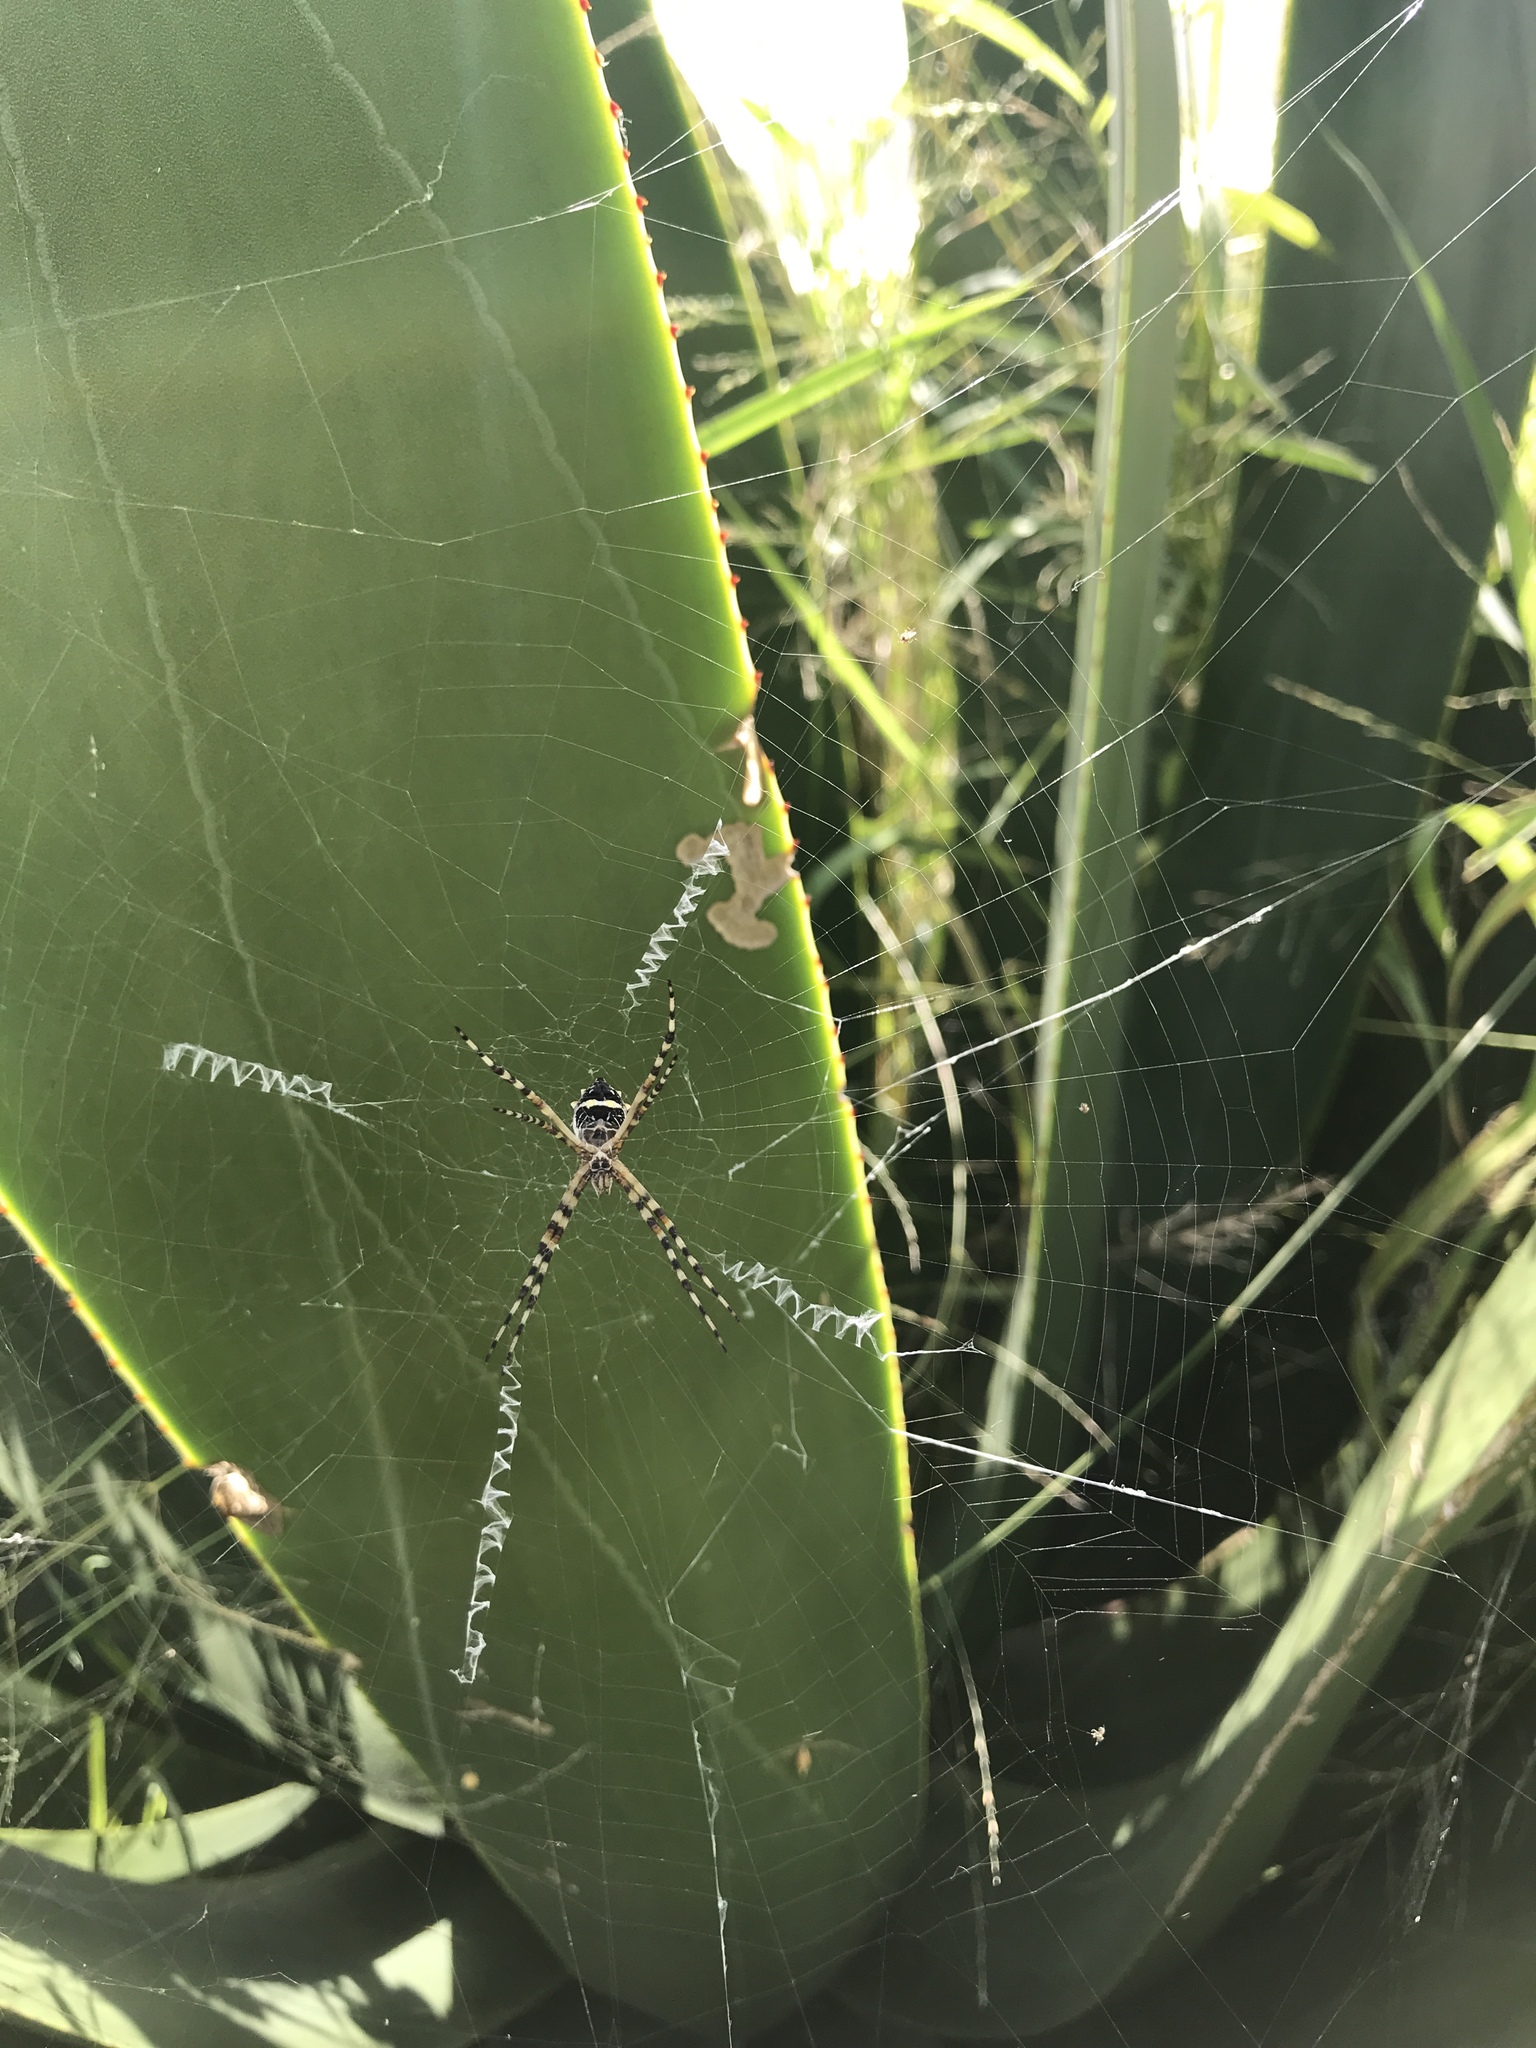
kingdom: Animalia
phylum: Arthropoda
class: Arachnida
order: Araneae
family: Araneidae
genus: Argiope
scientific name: Argiope argentata
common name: Orb weavers
